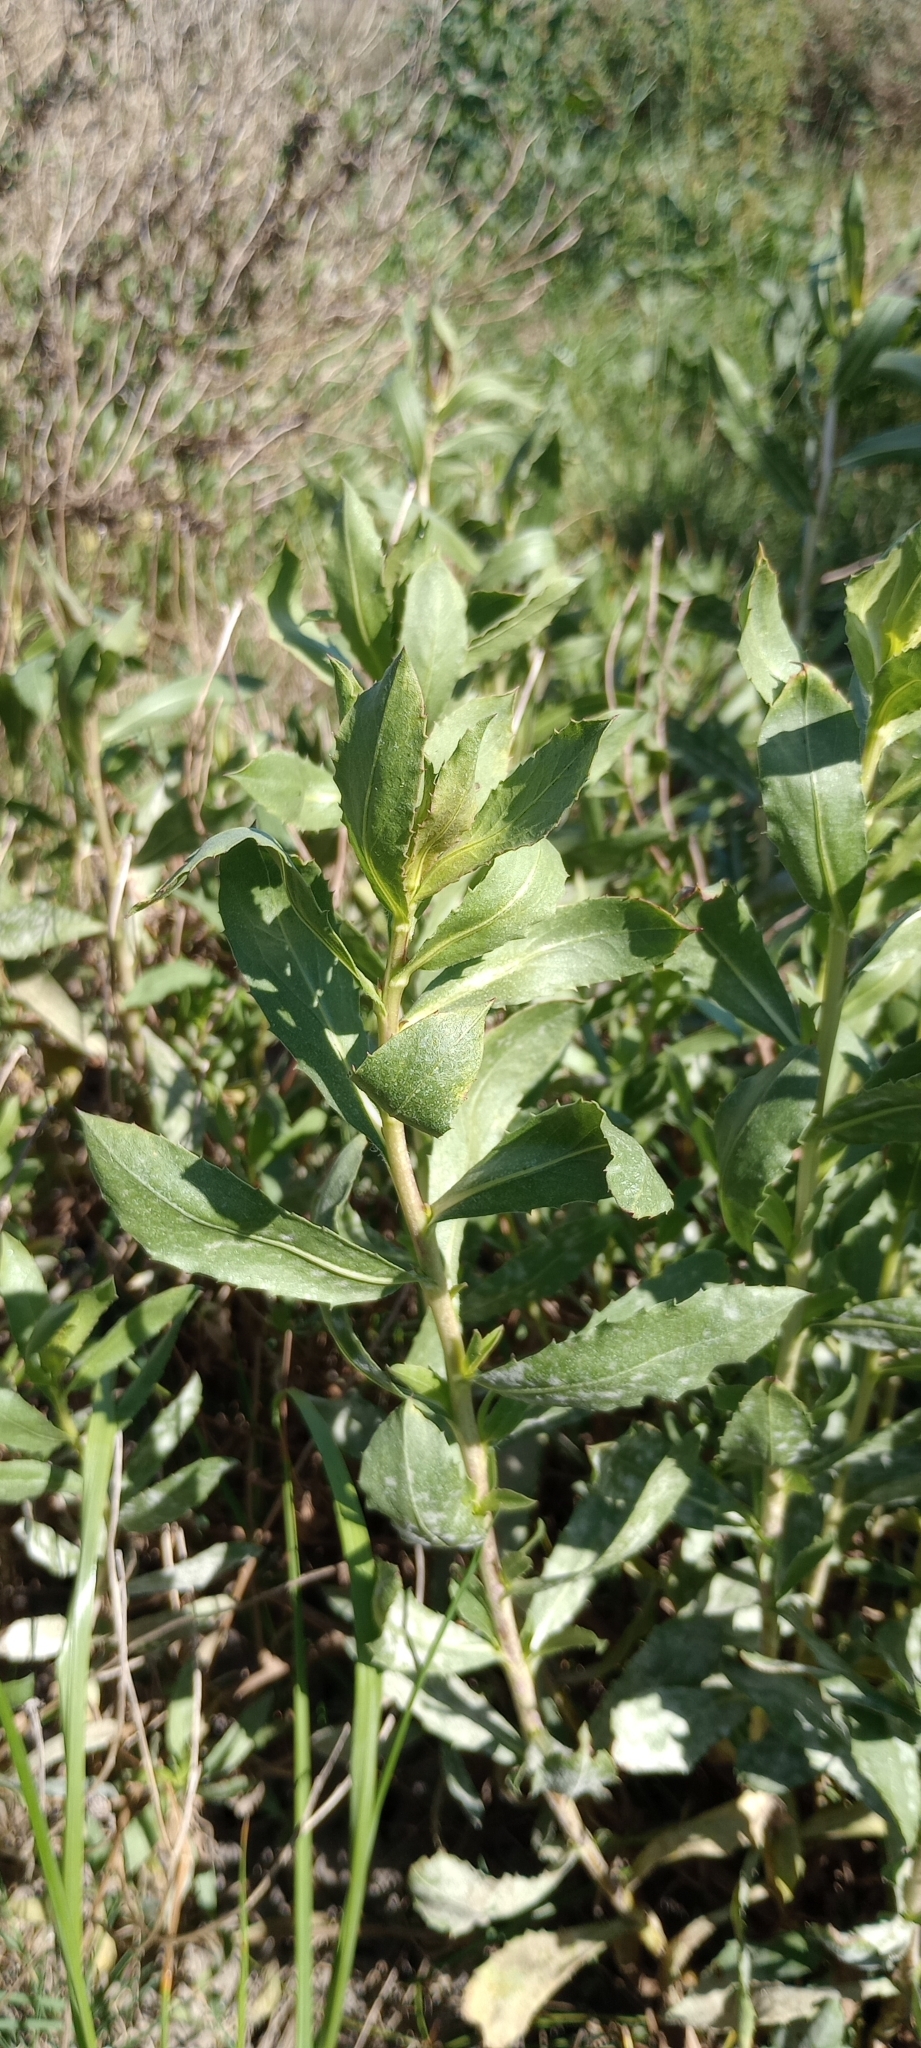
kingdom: Plantae
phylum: Tracheophyta
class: Magnoliopsida
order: Asterales
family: Asteraceae
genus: Grindelia
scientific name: Grindelia pulchella
